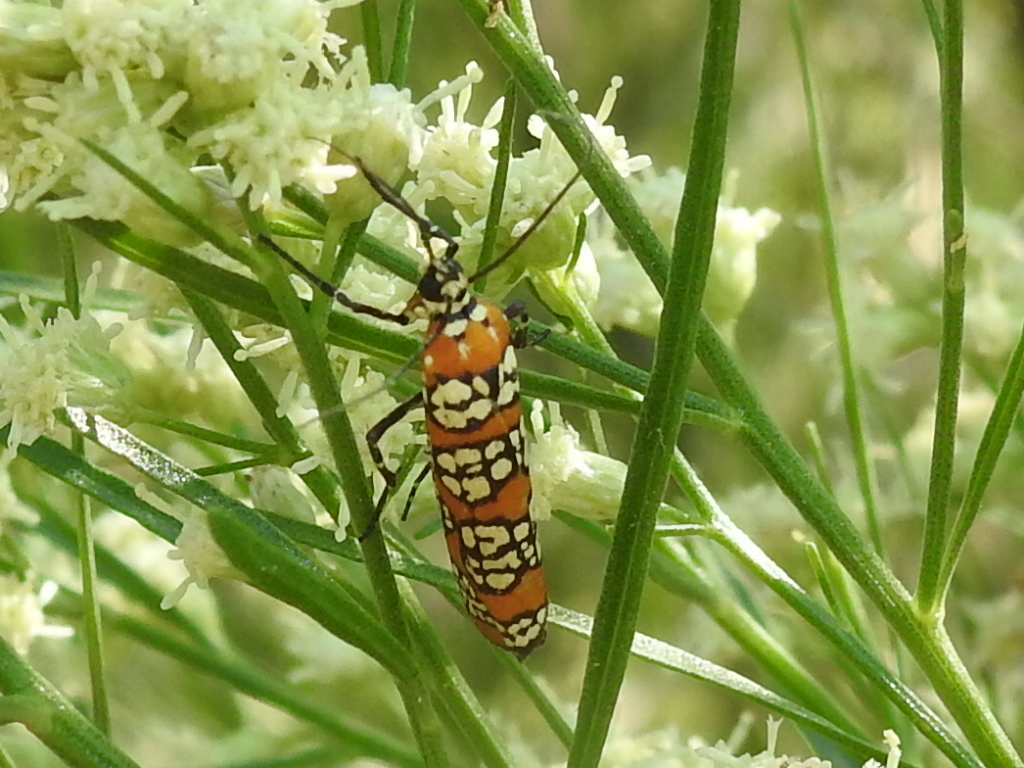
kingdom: Animalia
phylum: Arthropoda
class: Insecta
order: Lepidoptera
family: Attevidae
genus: Atteva
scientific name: Atteva punctella
